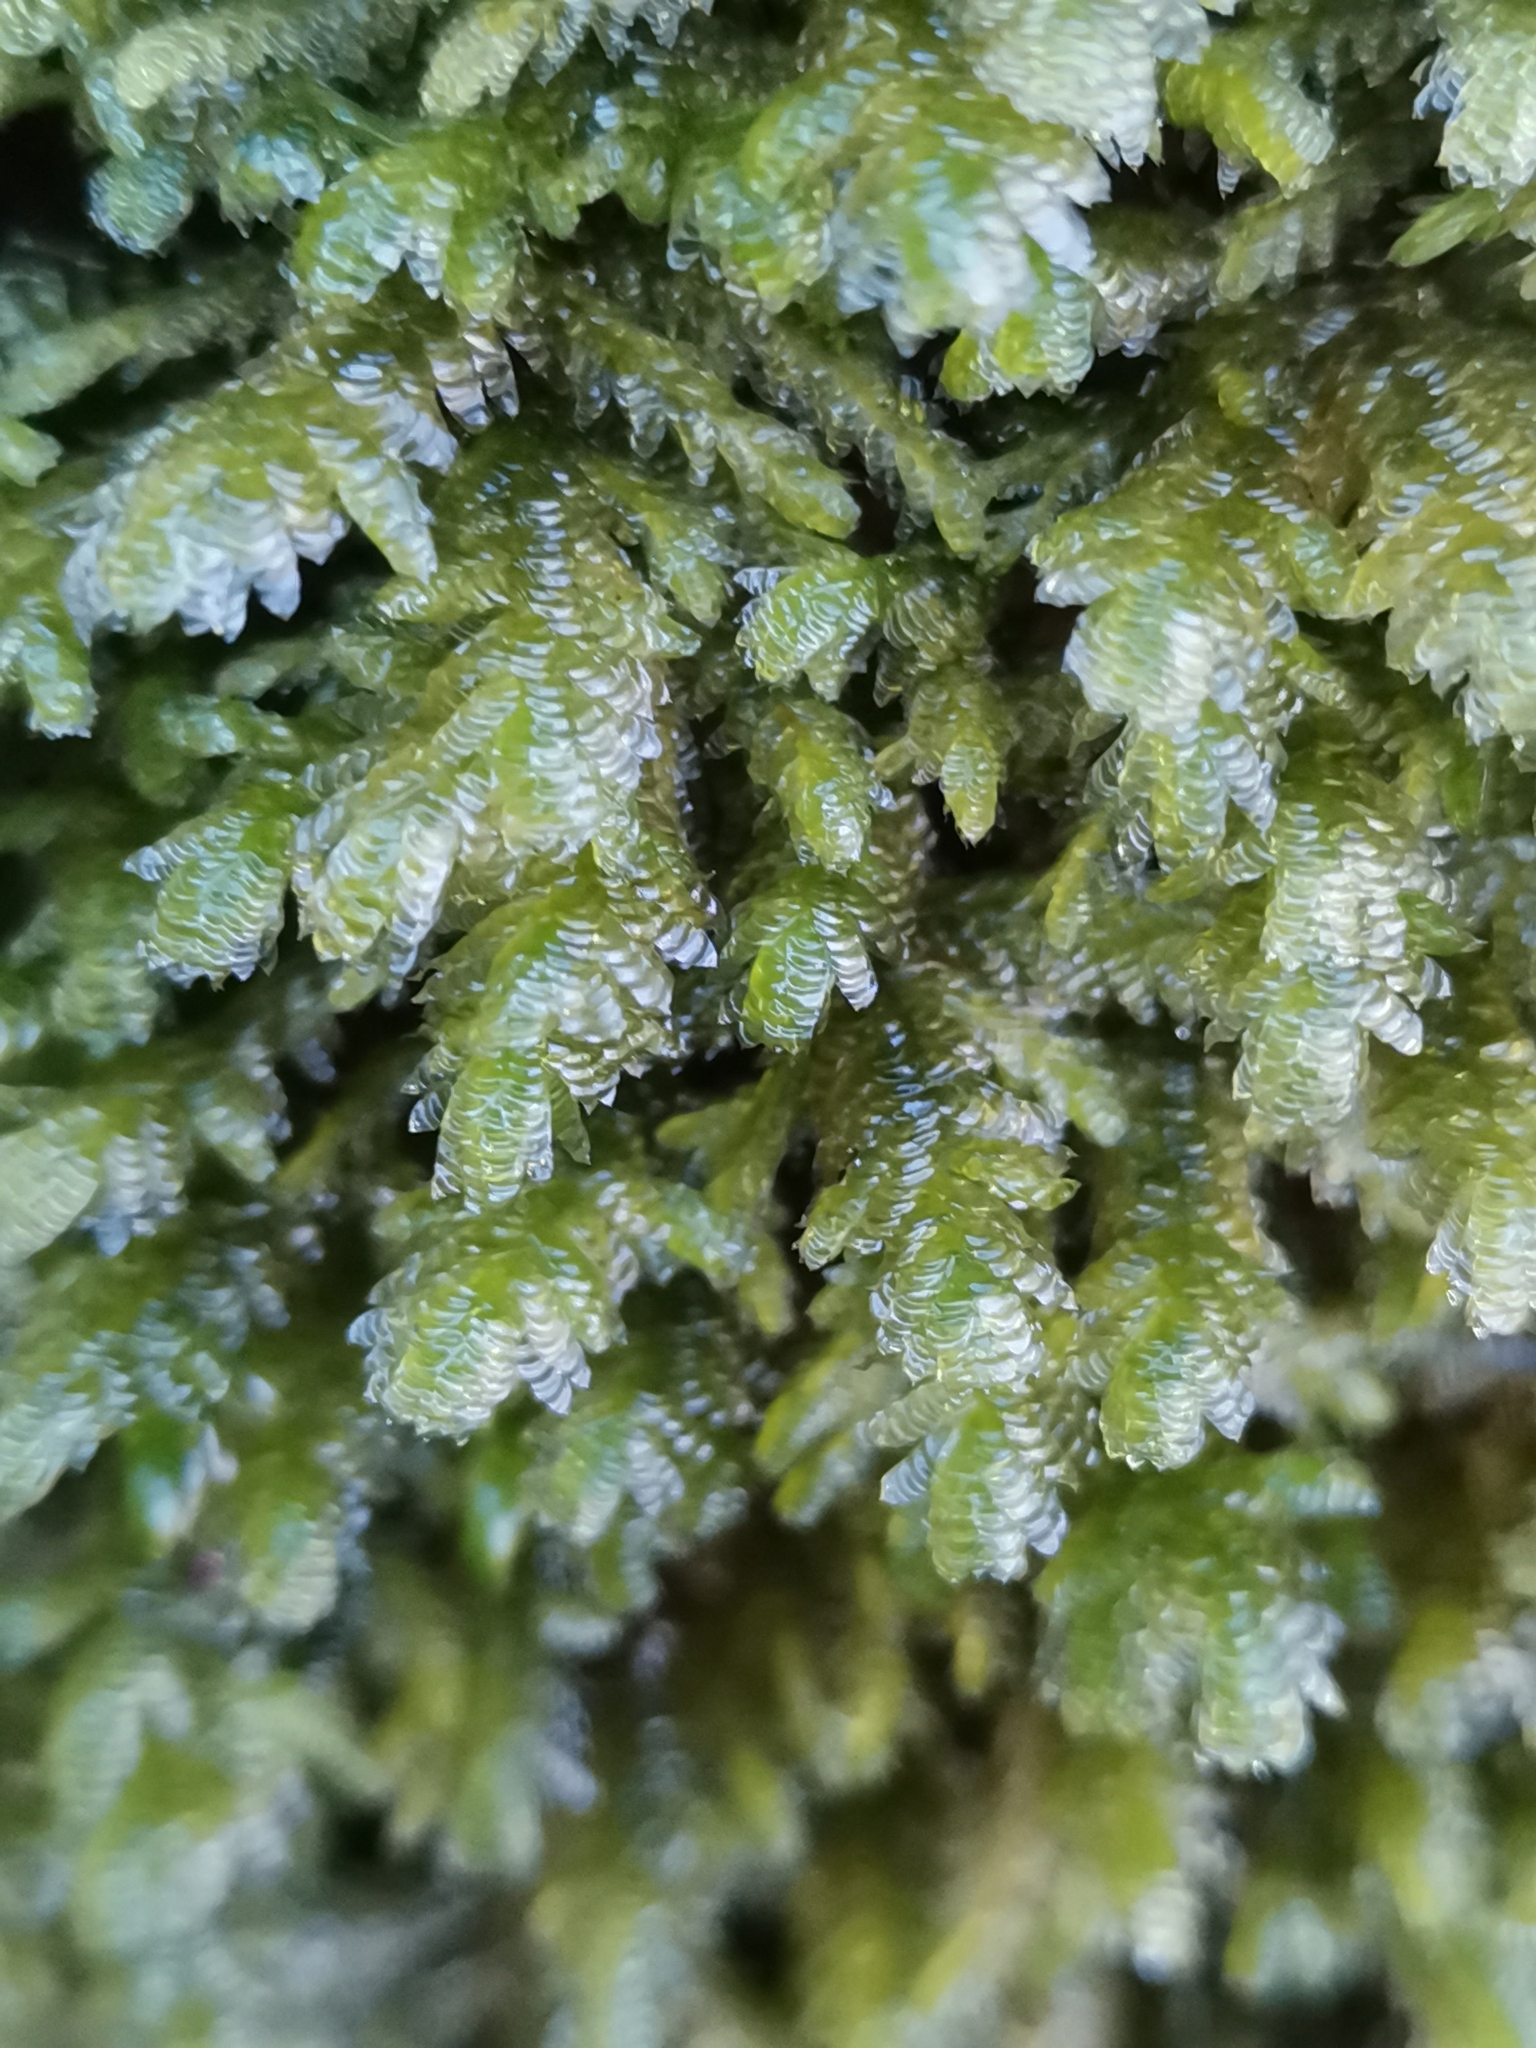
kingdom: Plantae
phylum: Bryophyta
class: Bryopsida
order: Hypnales
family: Neckeraceae
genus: Exsertotheca
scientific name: Exsertotheca crispa
